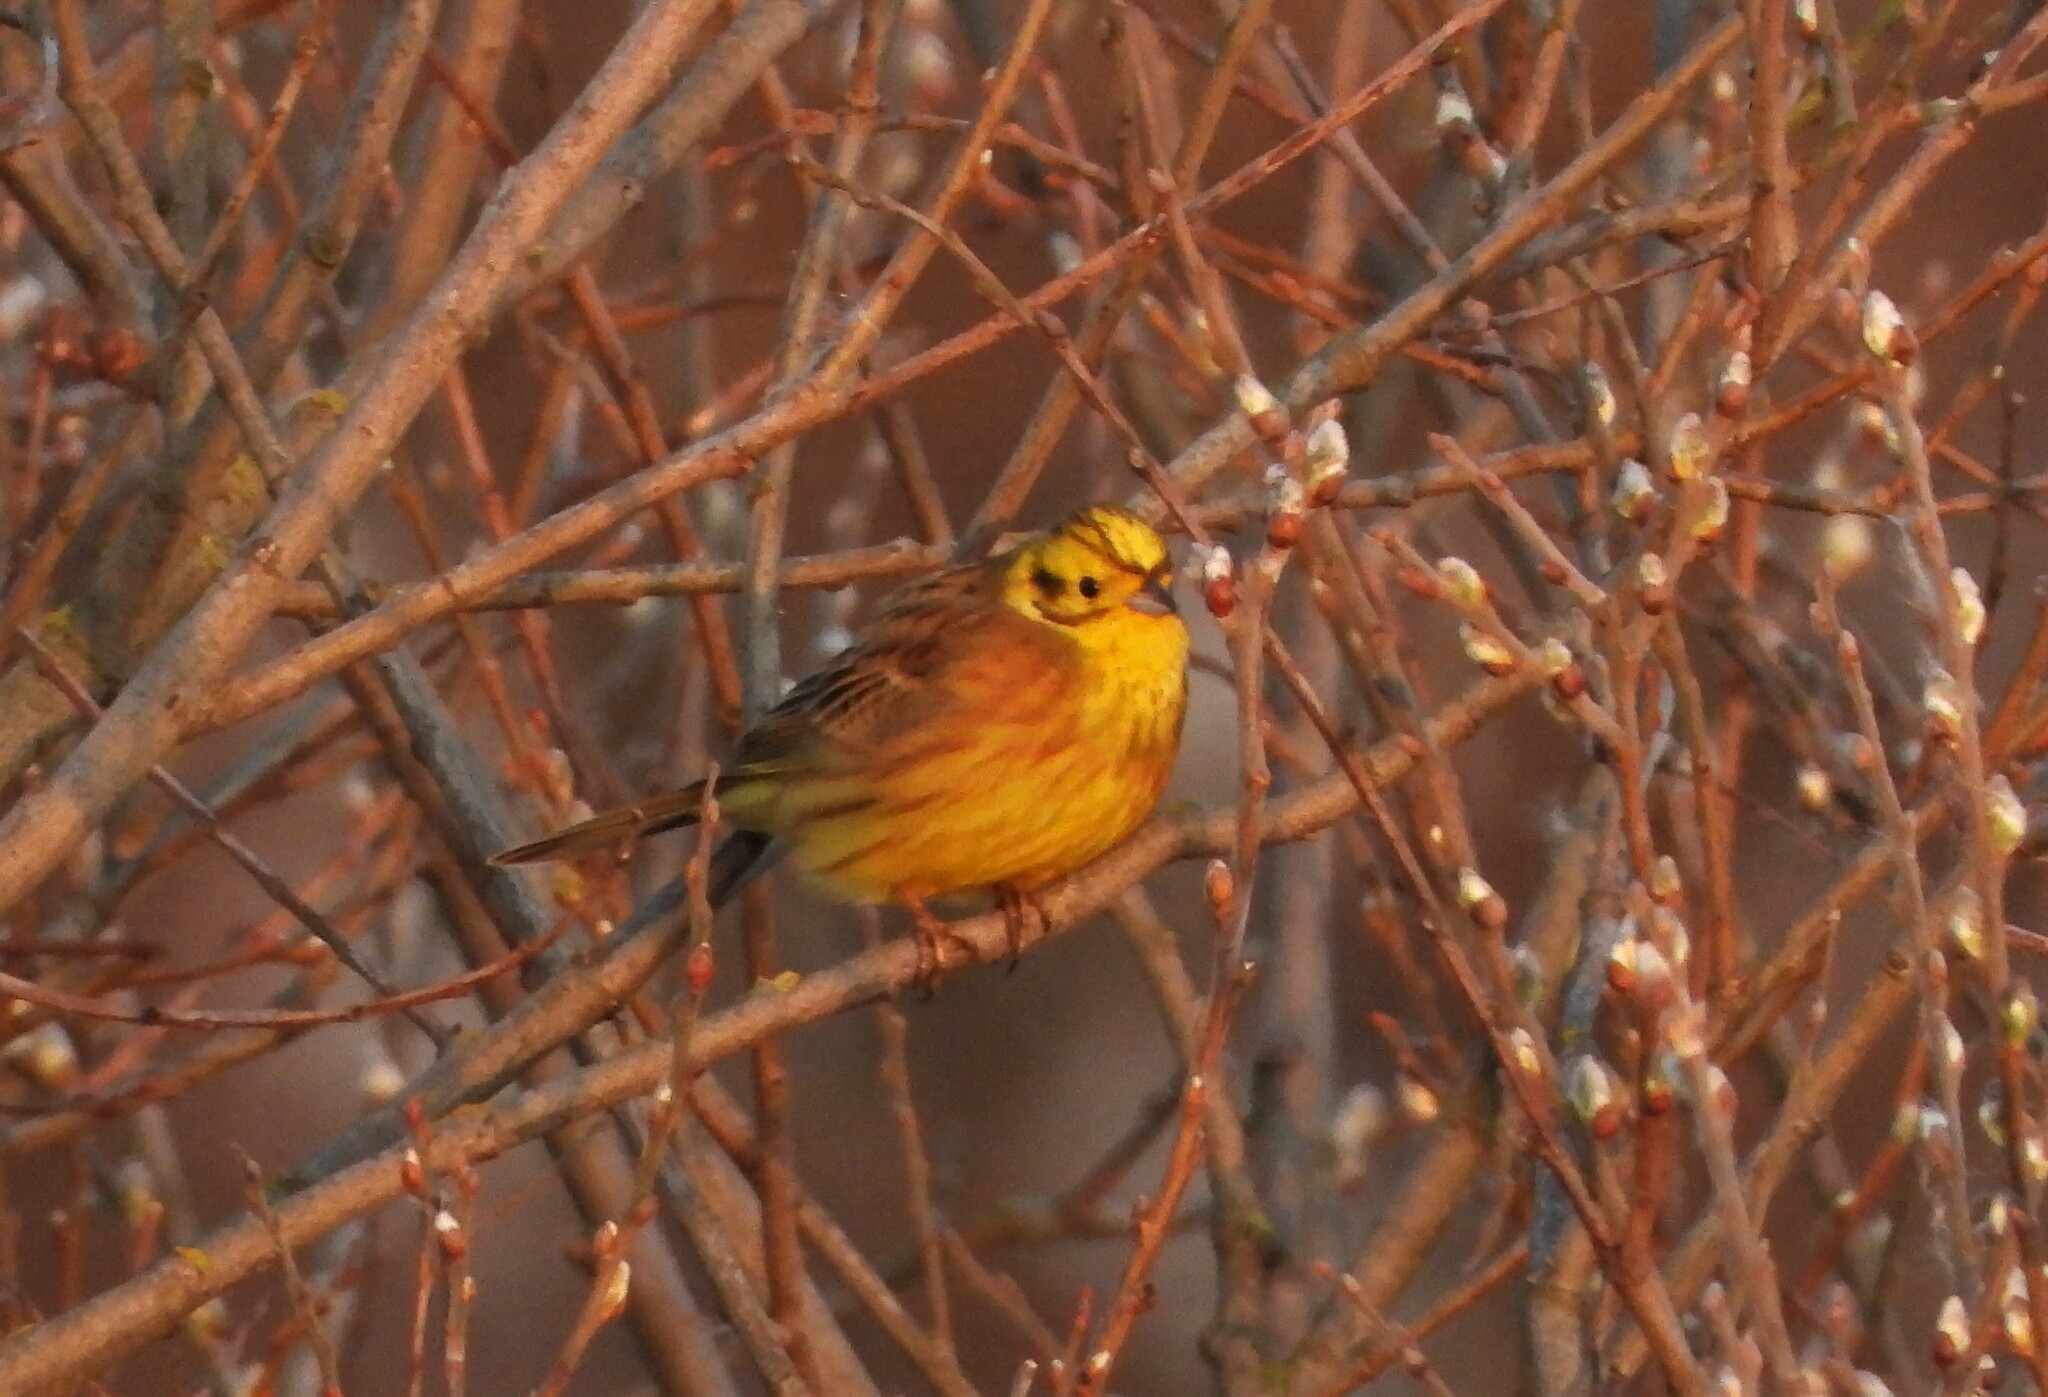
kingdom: Animalia
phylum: Chordata
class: Aves
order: Passeriformes
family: Emberizidae
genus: Emberiza
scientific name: Emberiza citrinella
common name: Yellowhammer
